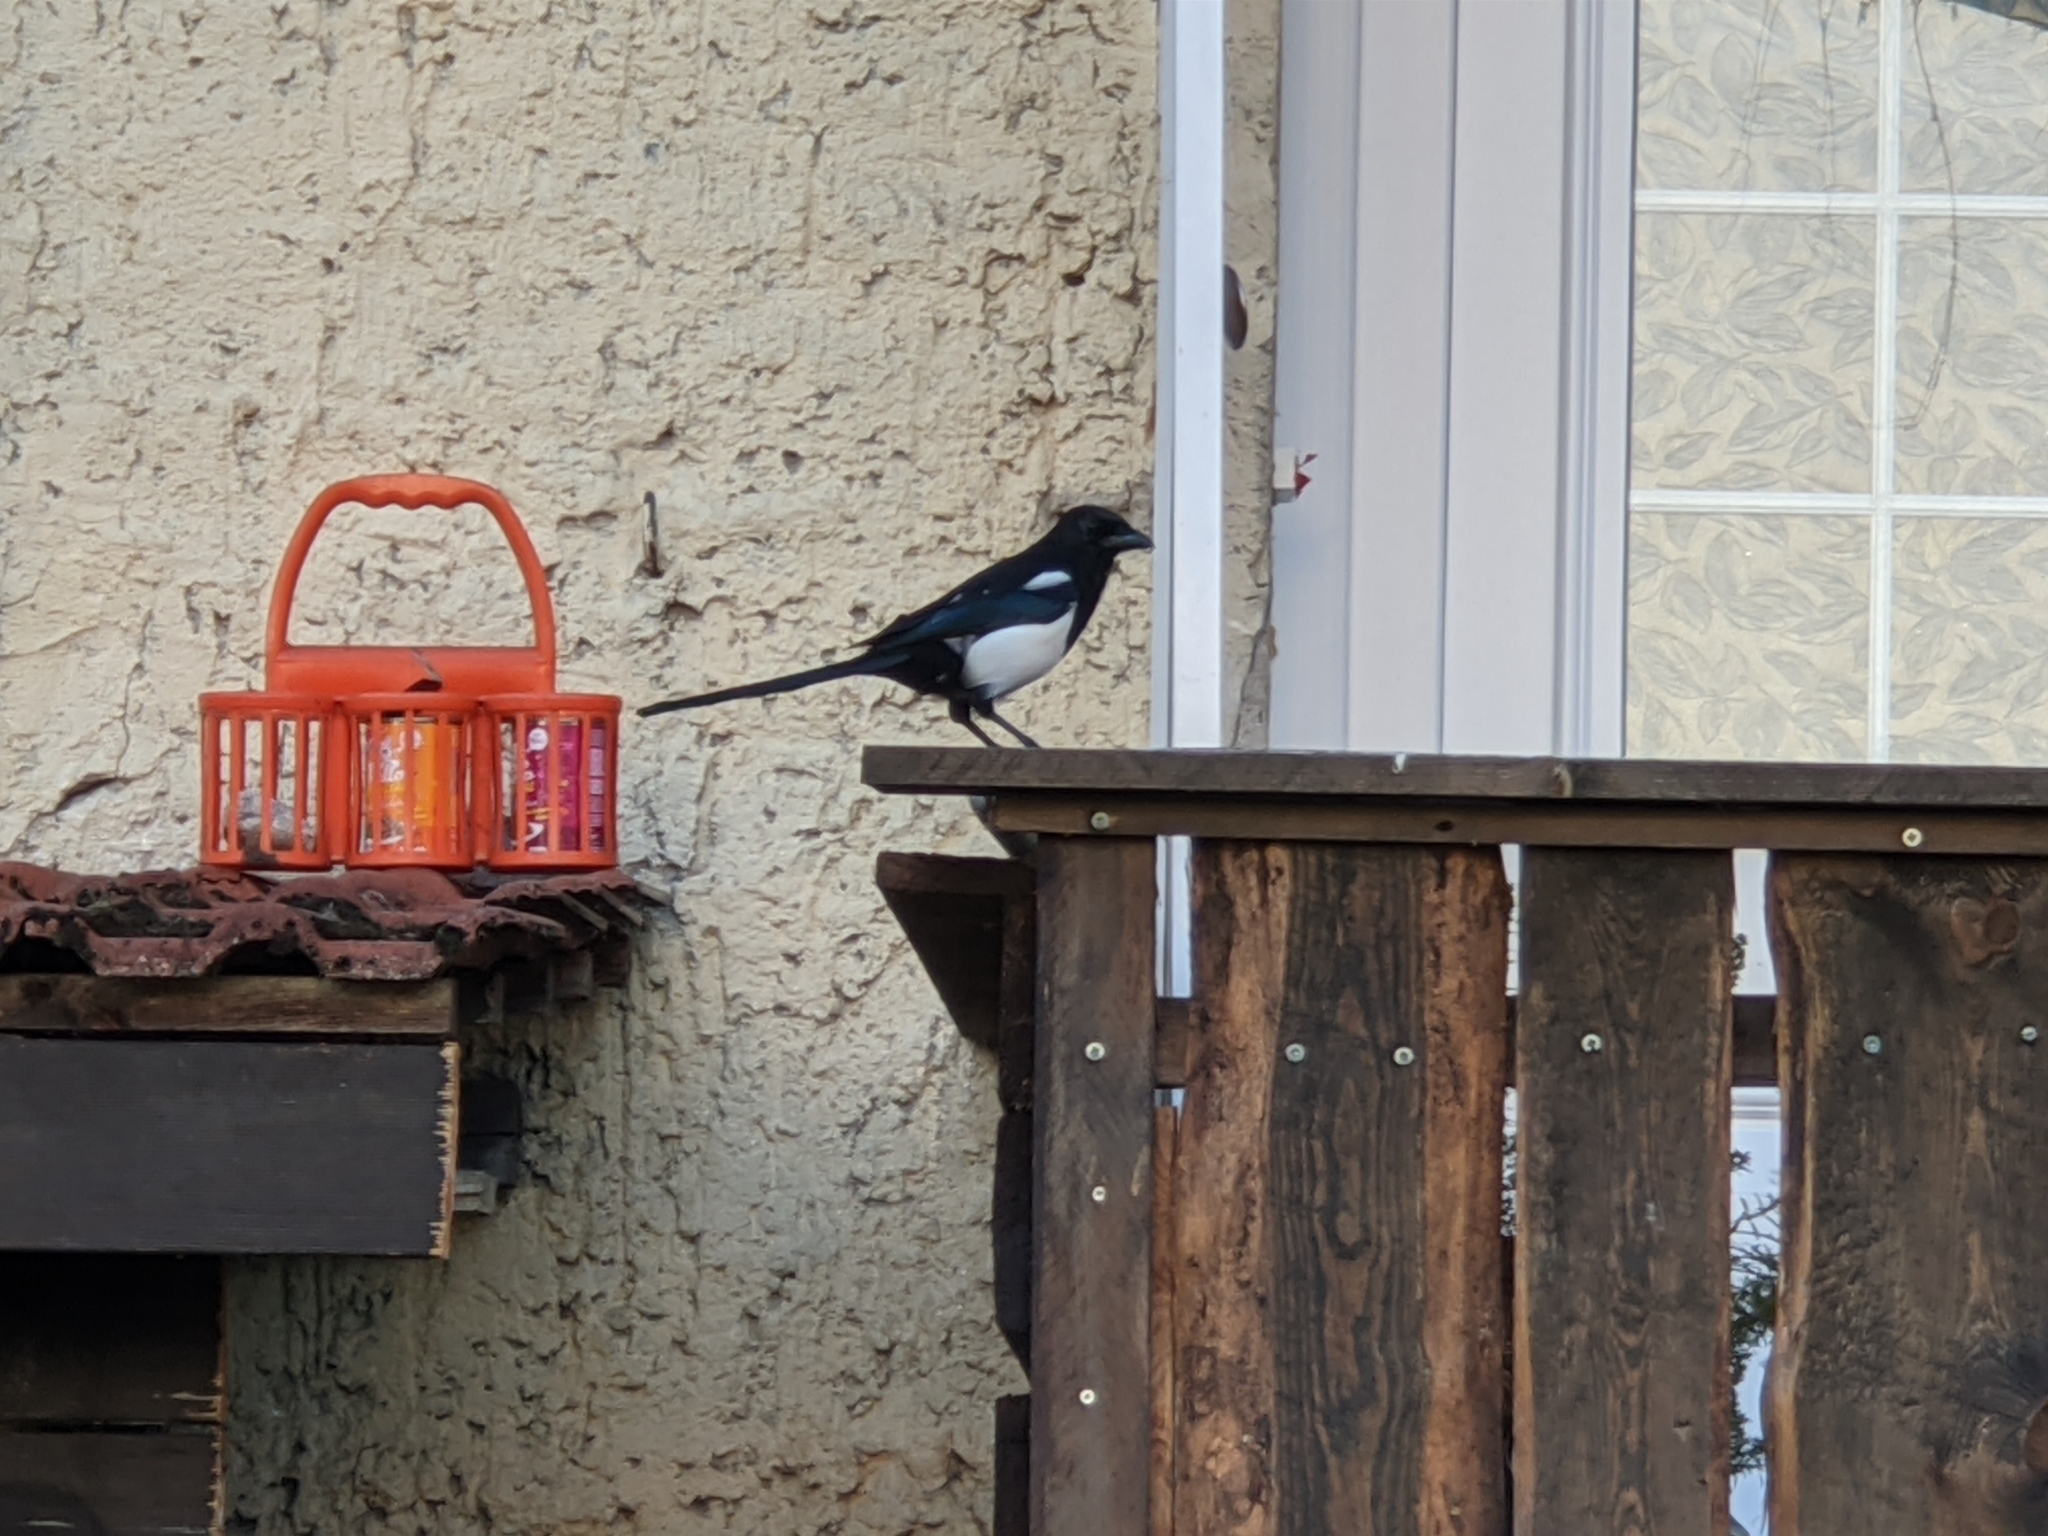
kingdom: Animalia
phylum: Chordata
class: Aves
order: Passeriformes
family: Corvidae
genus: Pica
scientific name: Pica pica
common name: Eurasian magpie
